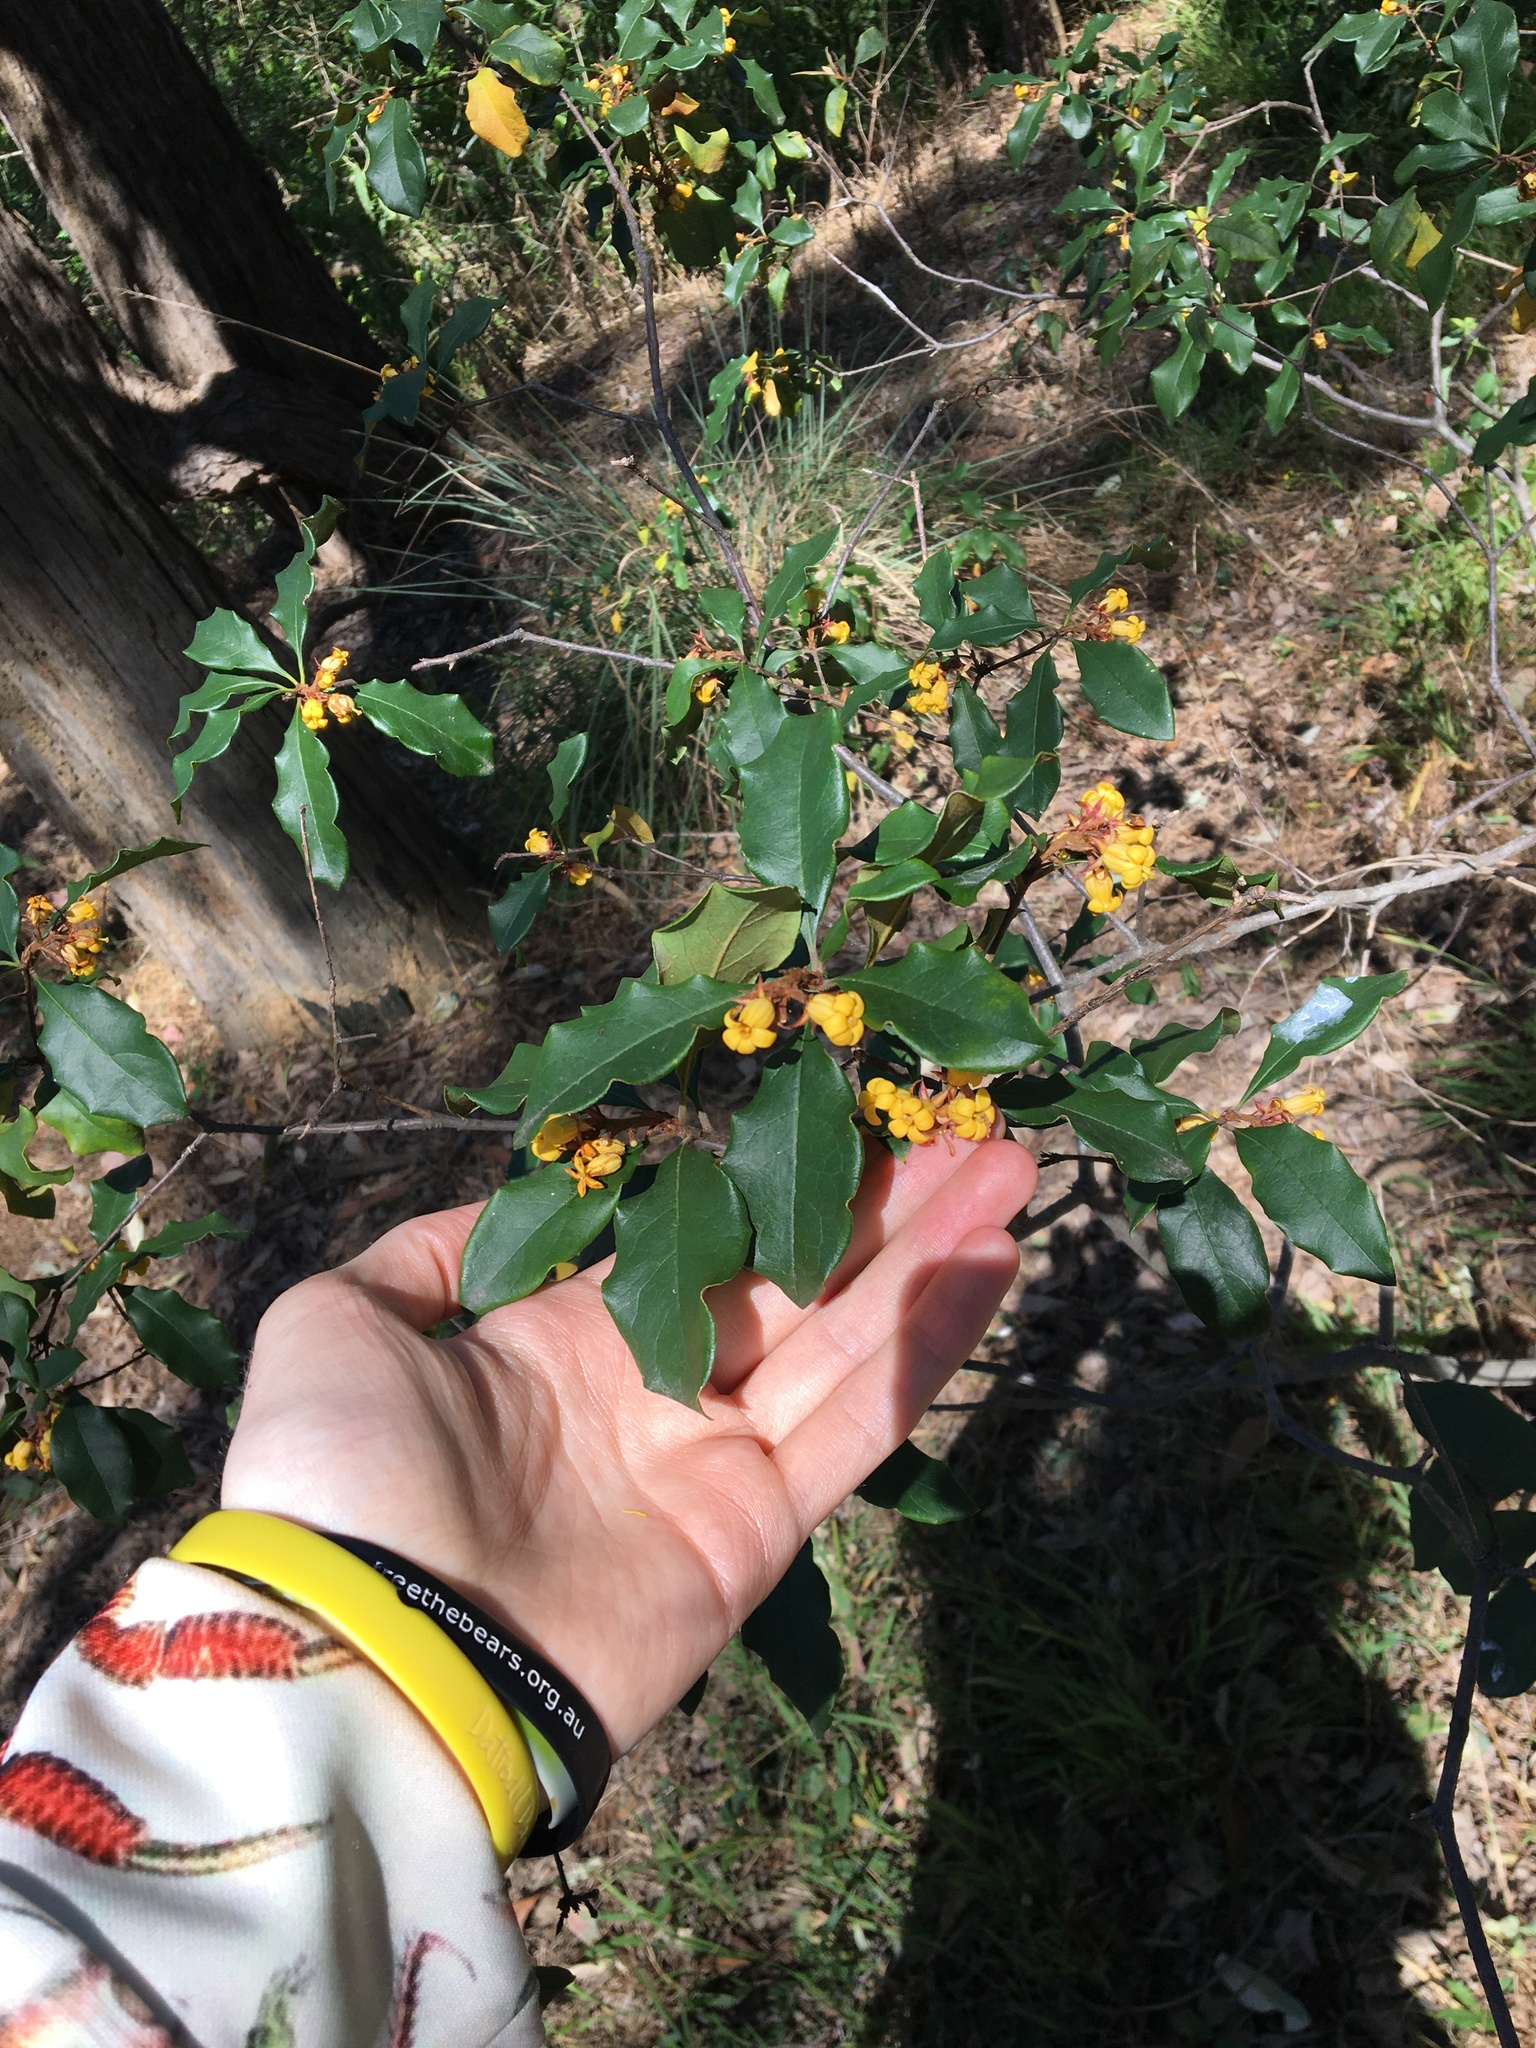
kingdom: Plantae
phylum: Tracheophyta
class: Magnoliopsida
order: Apiales
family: Pittosporaceae
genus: Pittosporum
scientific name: Pittosporum revolutum
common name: Brisbane-laurel
